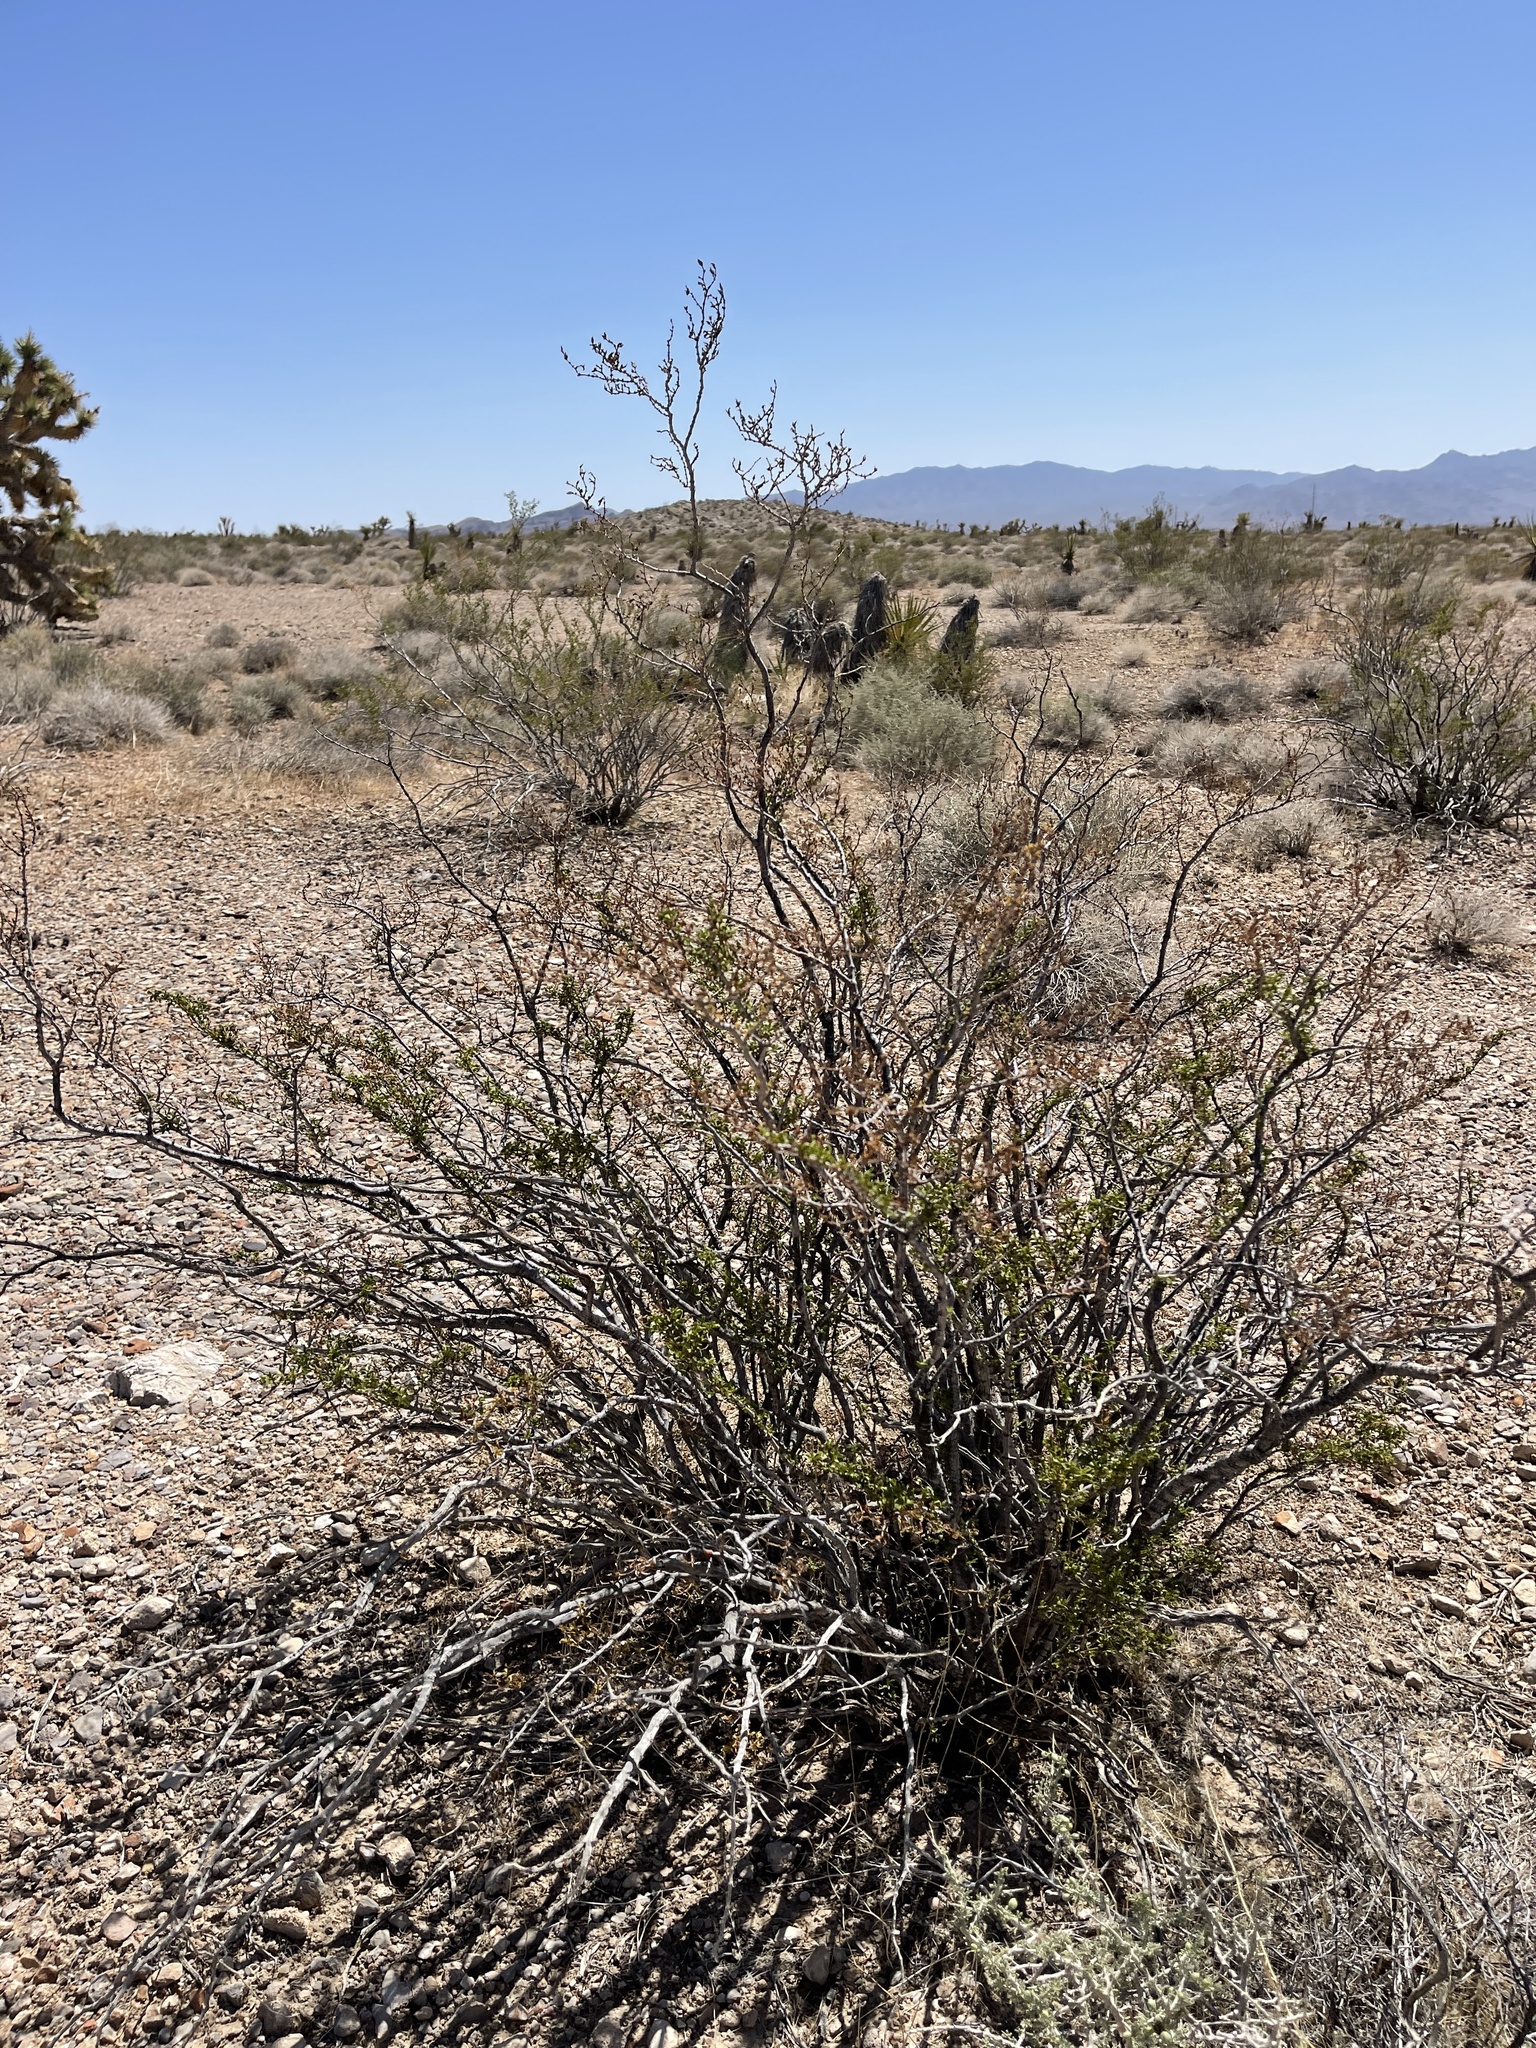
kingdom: Plantae
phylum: Tracheophyta
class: Magnoliopsida
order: Zygophyllales
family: Zygophyllaceae
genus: Larrea
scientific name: Larrea tridentata
